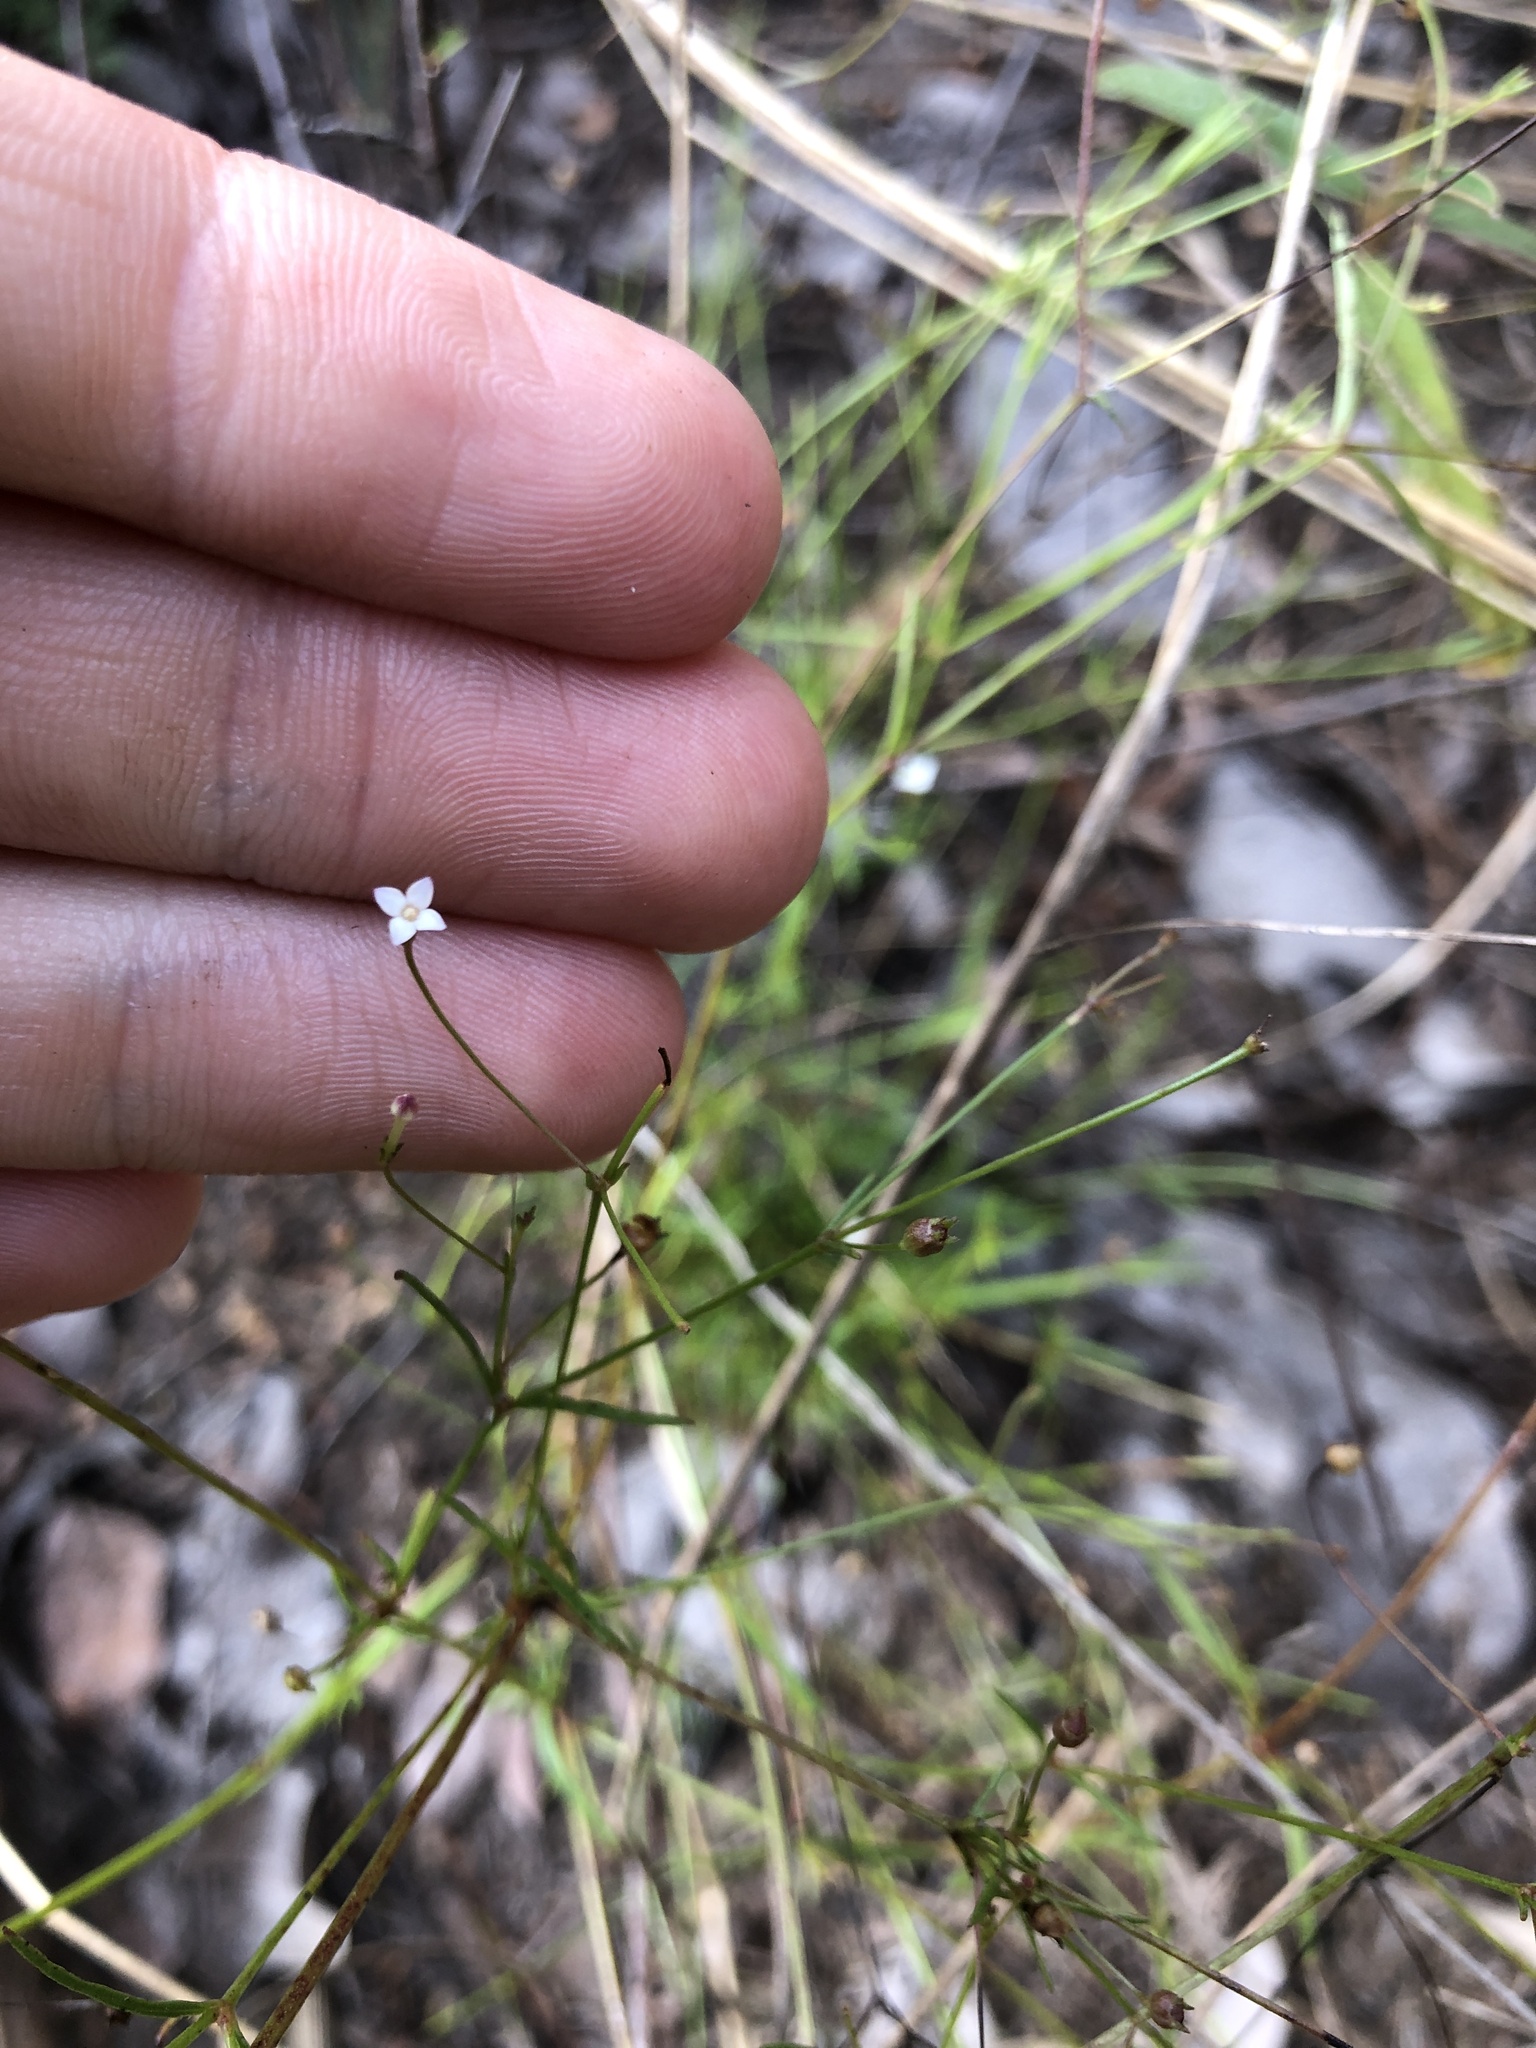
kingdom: Plantae
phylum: Tracheophyta
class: Magnoliopsida
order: Gentianales
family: Rubiaceae
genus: Oldenlandia
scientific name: Oldenlandia herbacea
